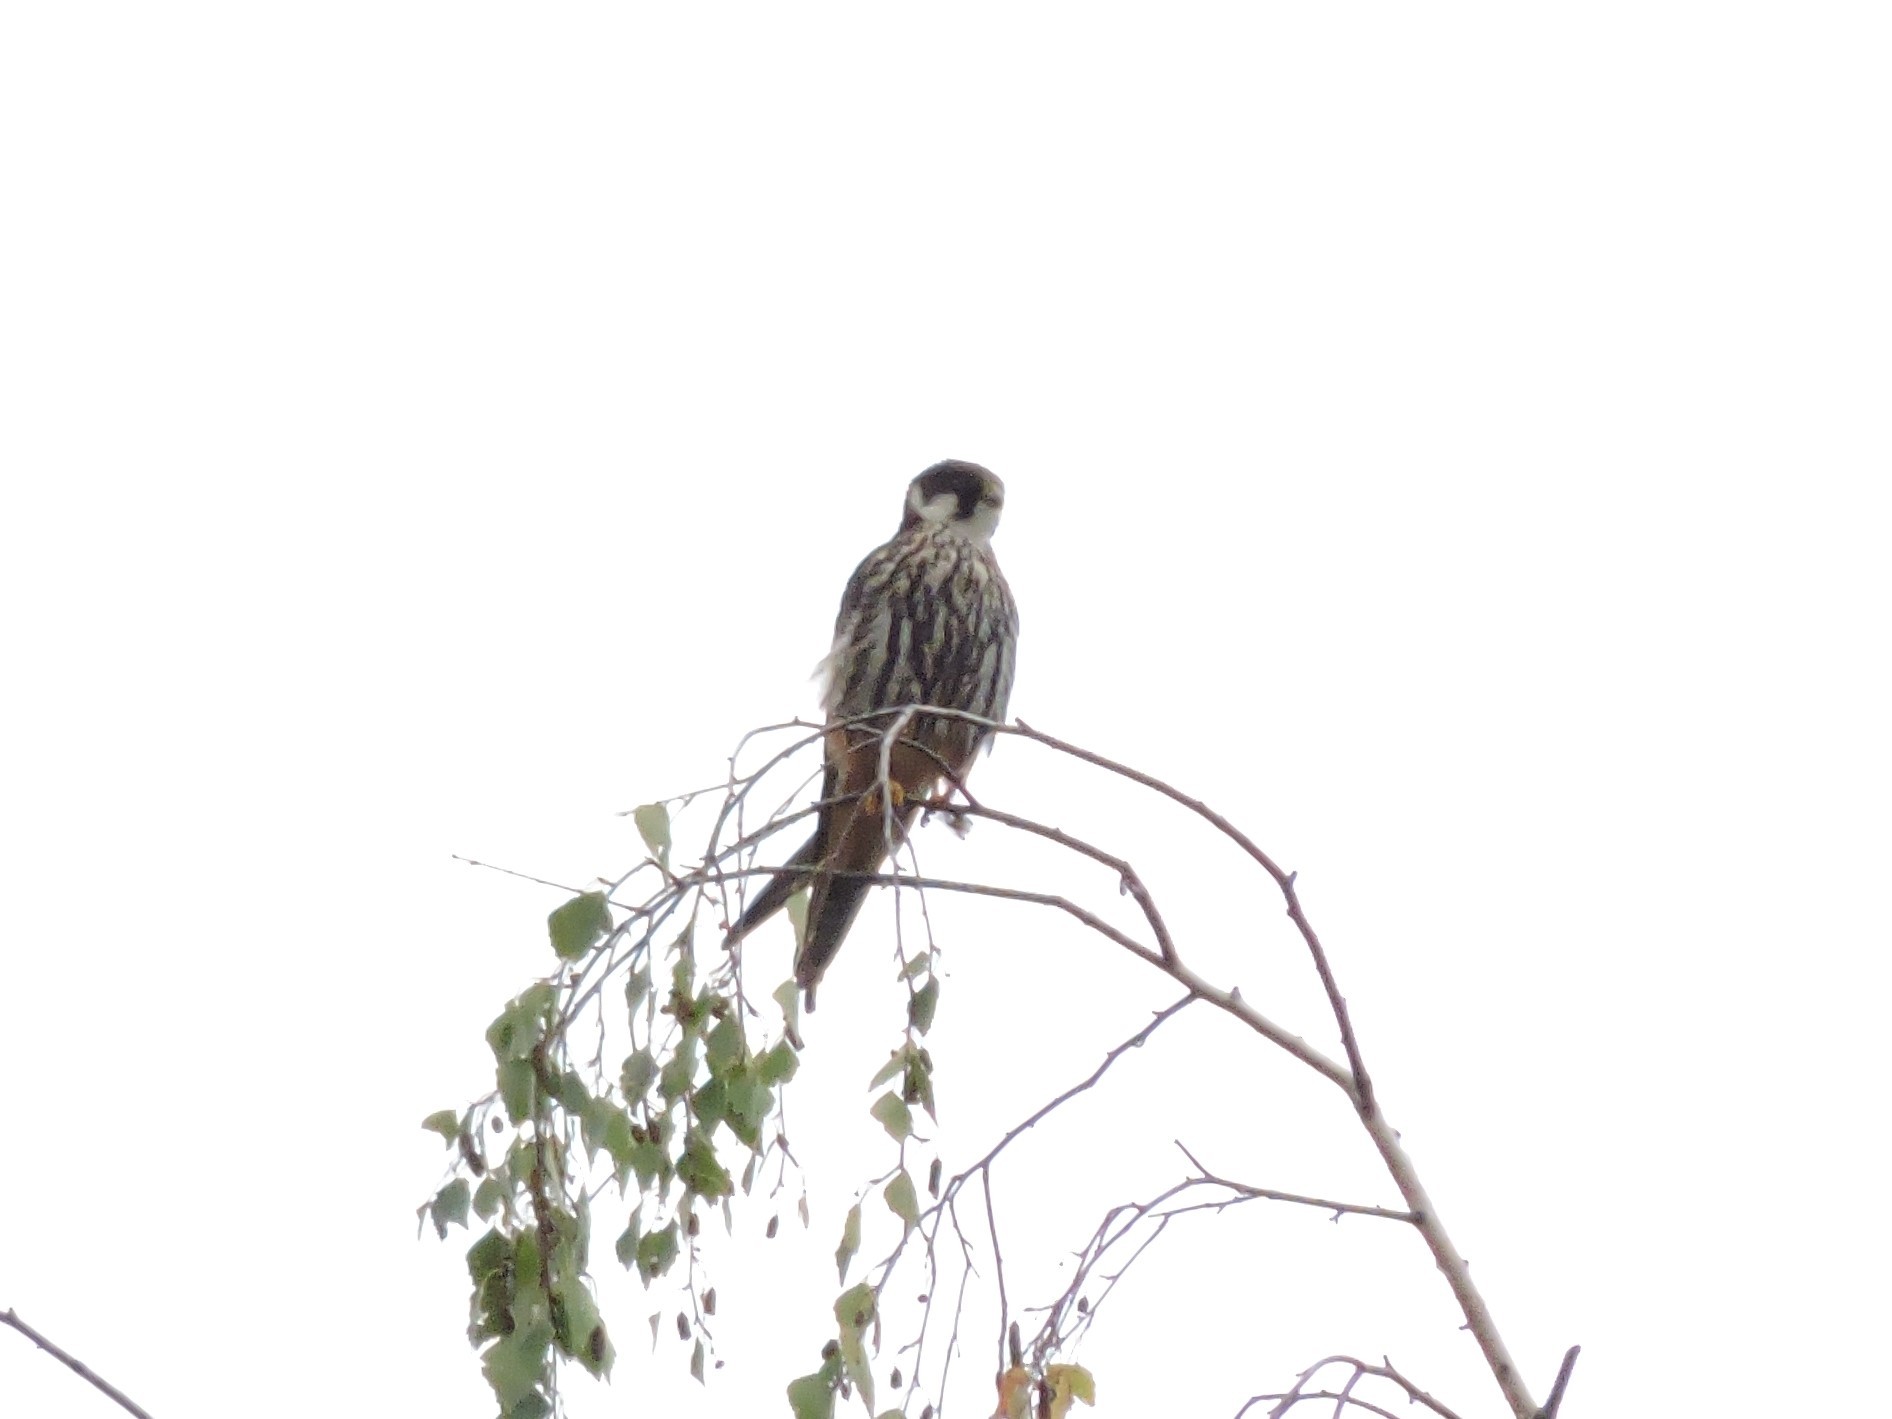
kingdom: Animalia
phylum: Chordata
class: Aves
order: Falconiformes
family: Falconidae
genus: Falco
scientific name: Falco subbuteo
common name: Eurasian hobby
